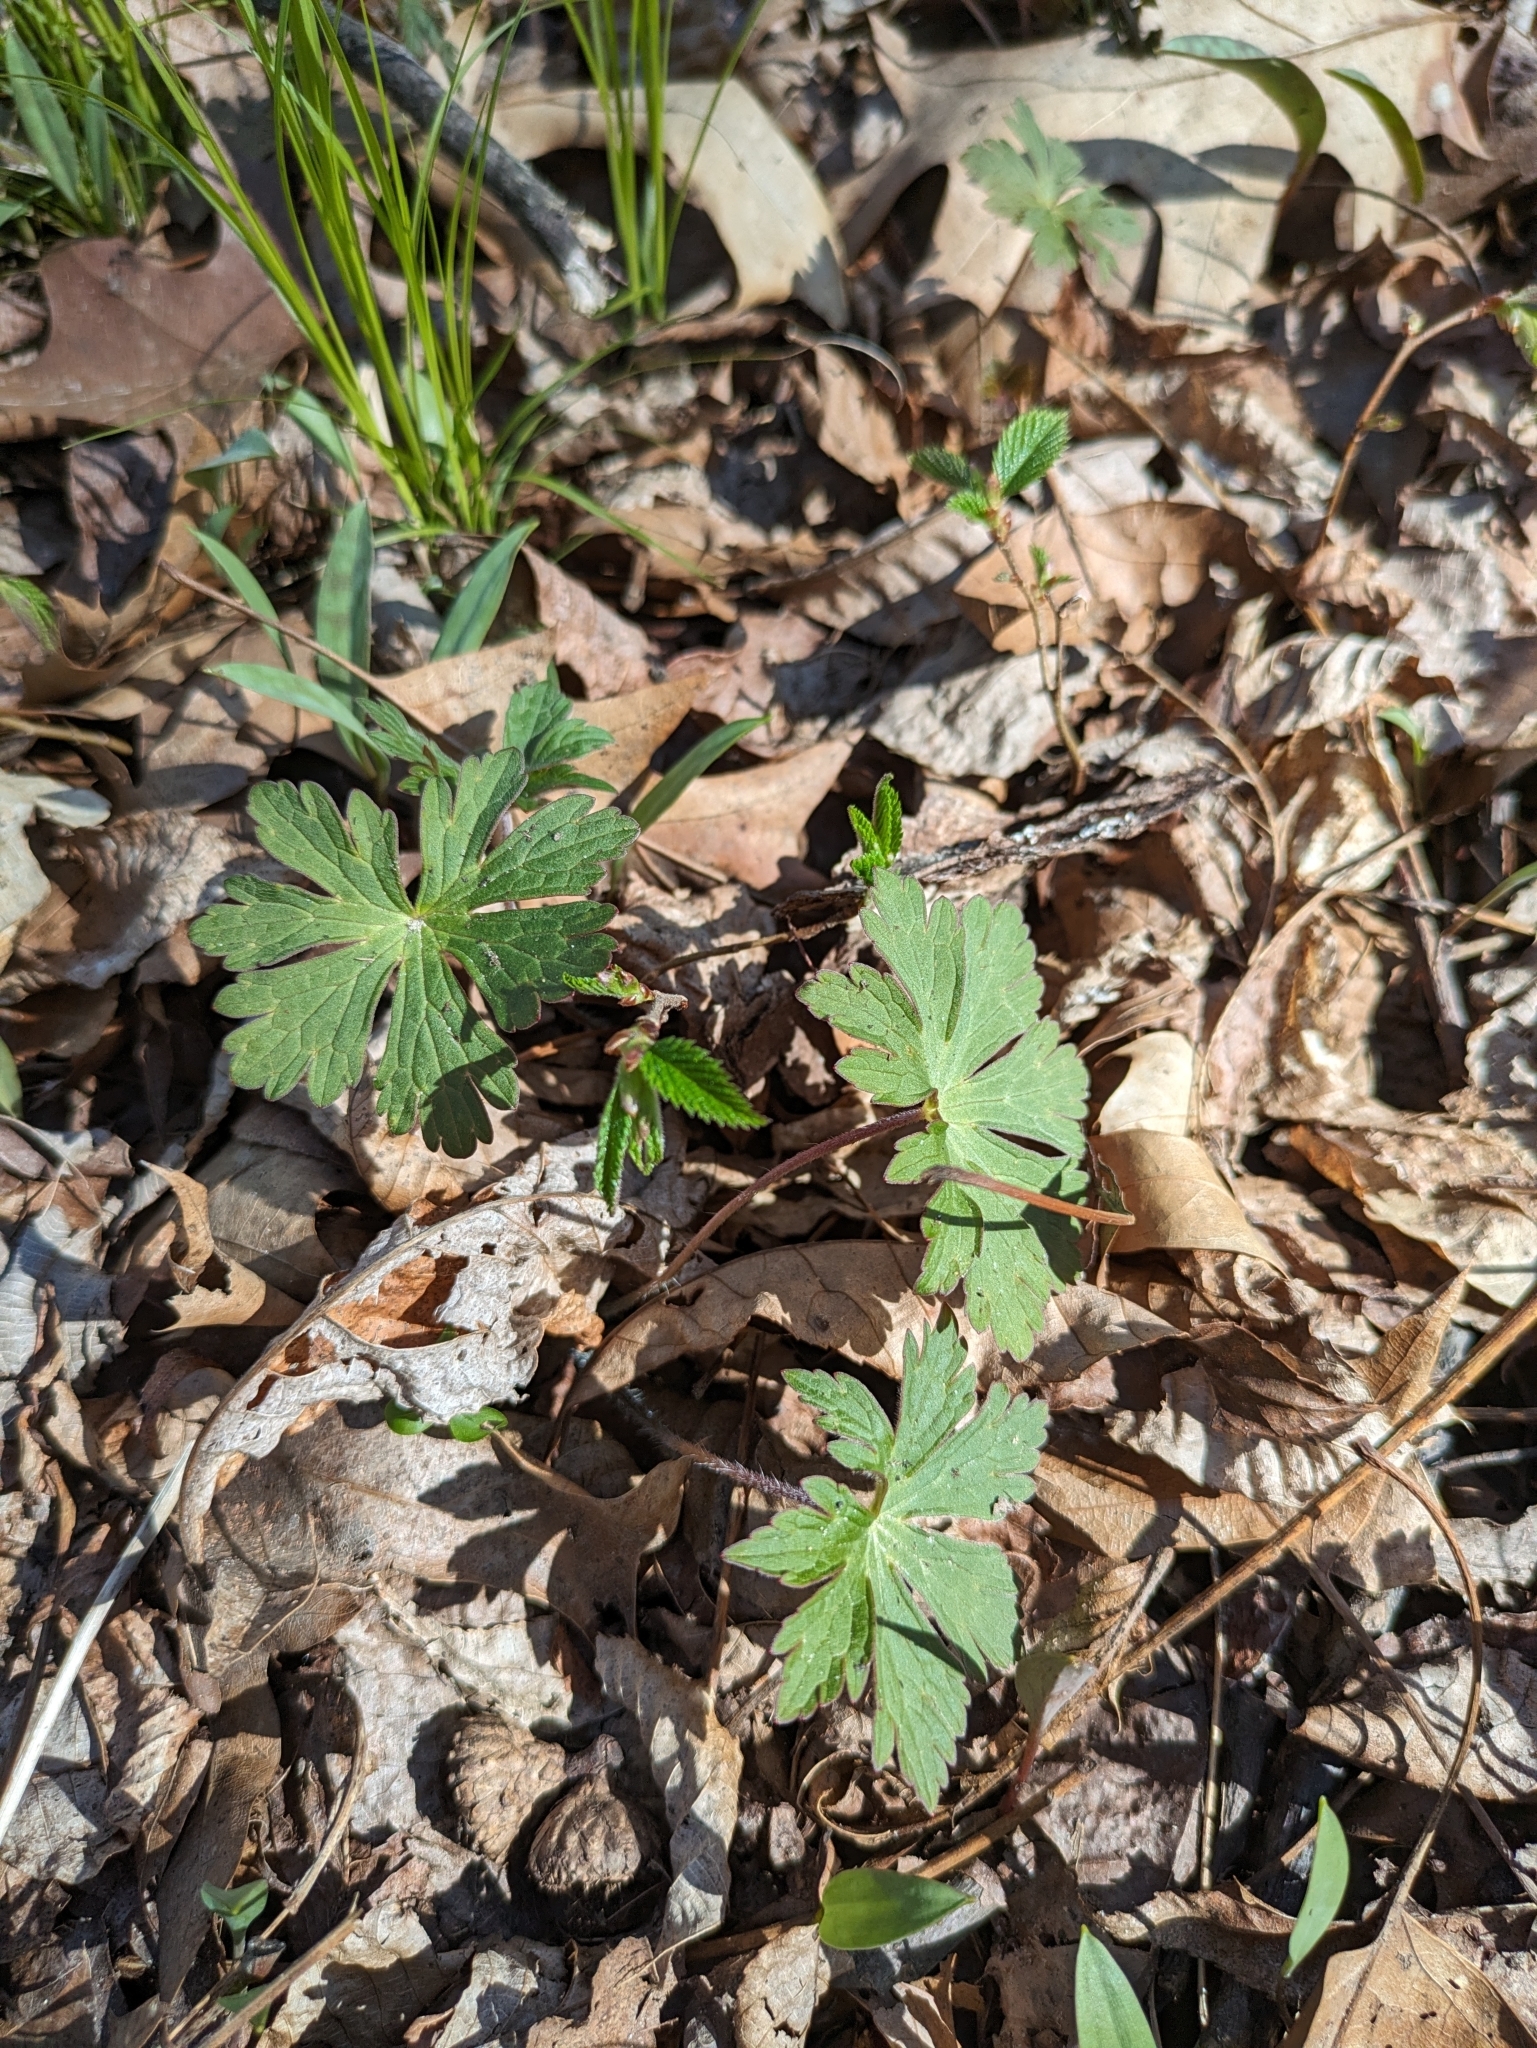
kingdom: Plantae
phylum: Tracheophyta
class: Magnoliopsida
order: Geraniales
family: Geraniaceae
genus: Geranium
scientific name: Geranium maculatum
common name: Spotted geranium
